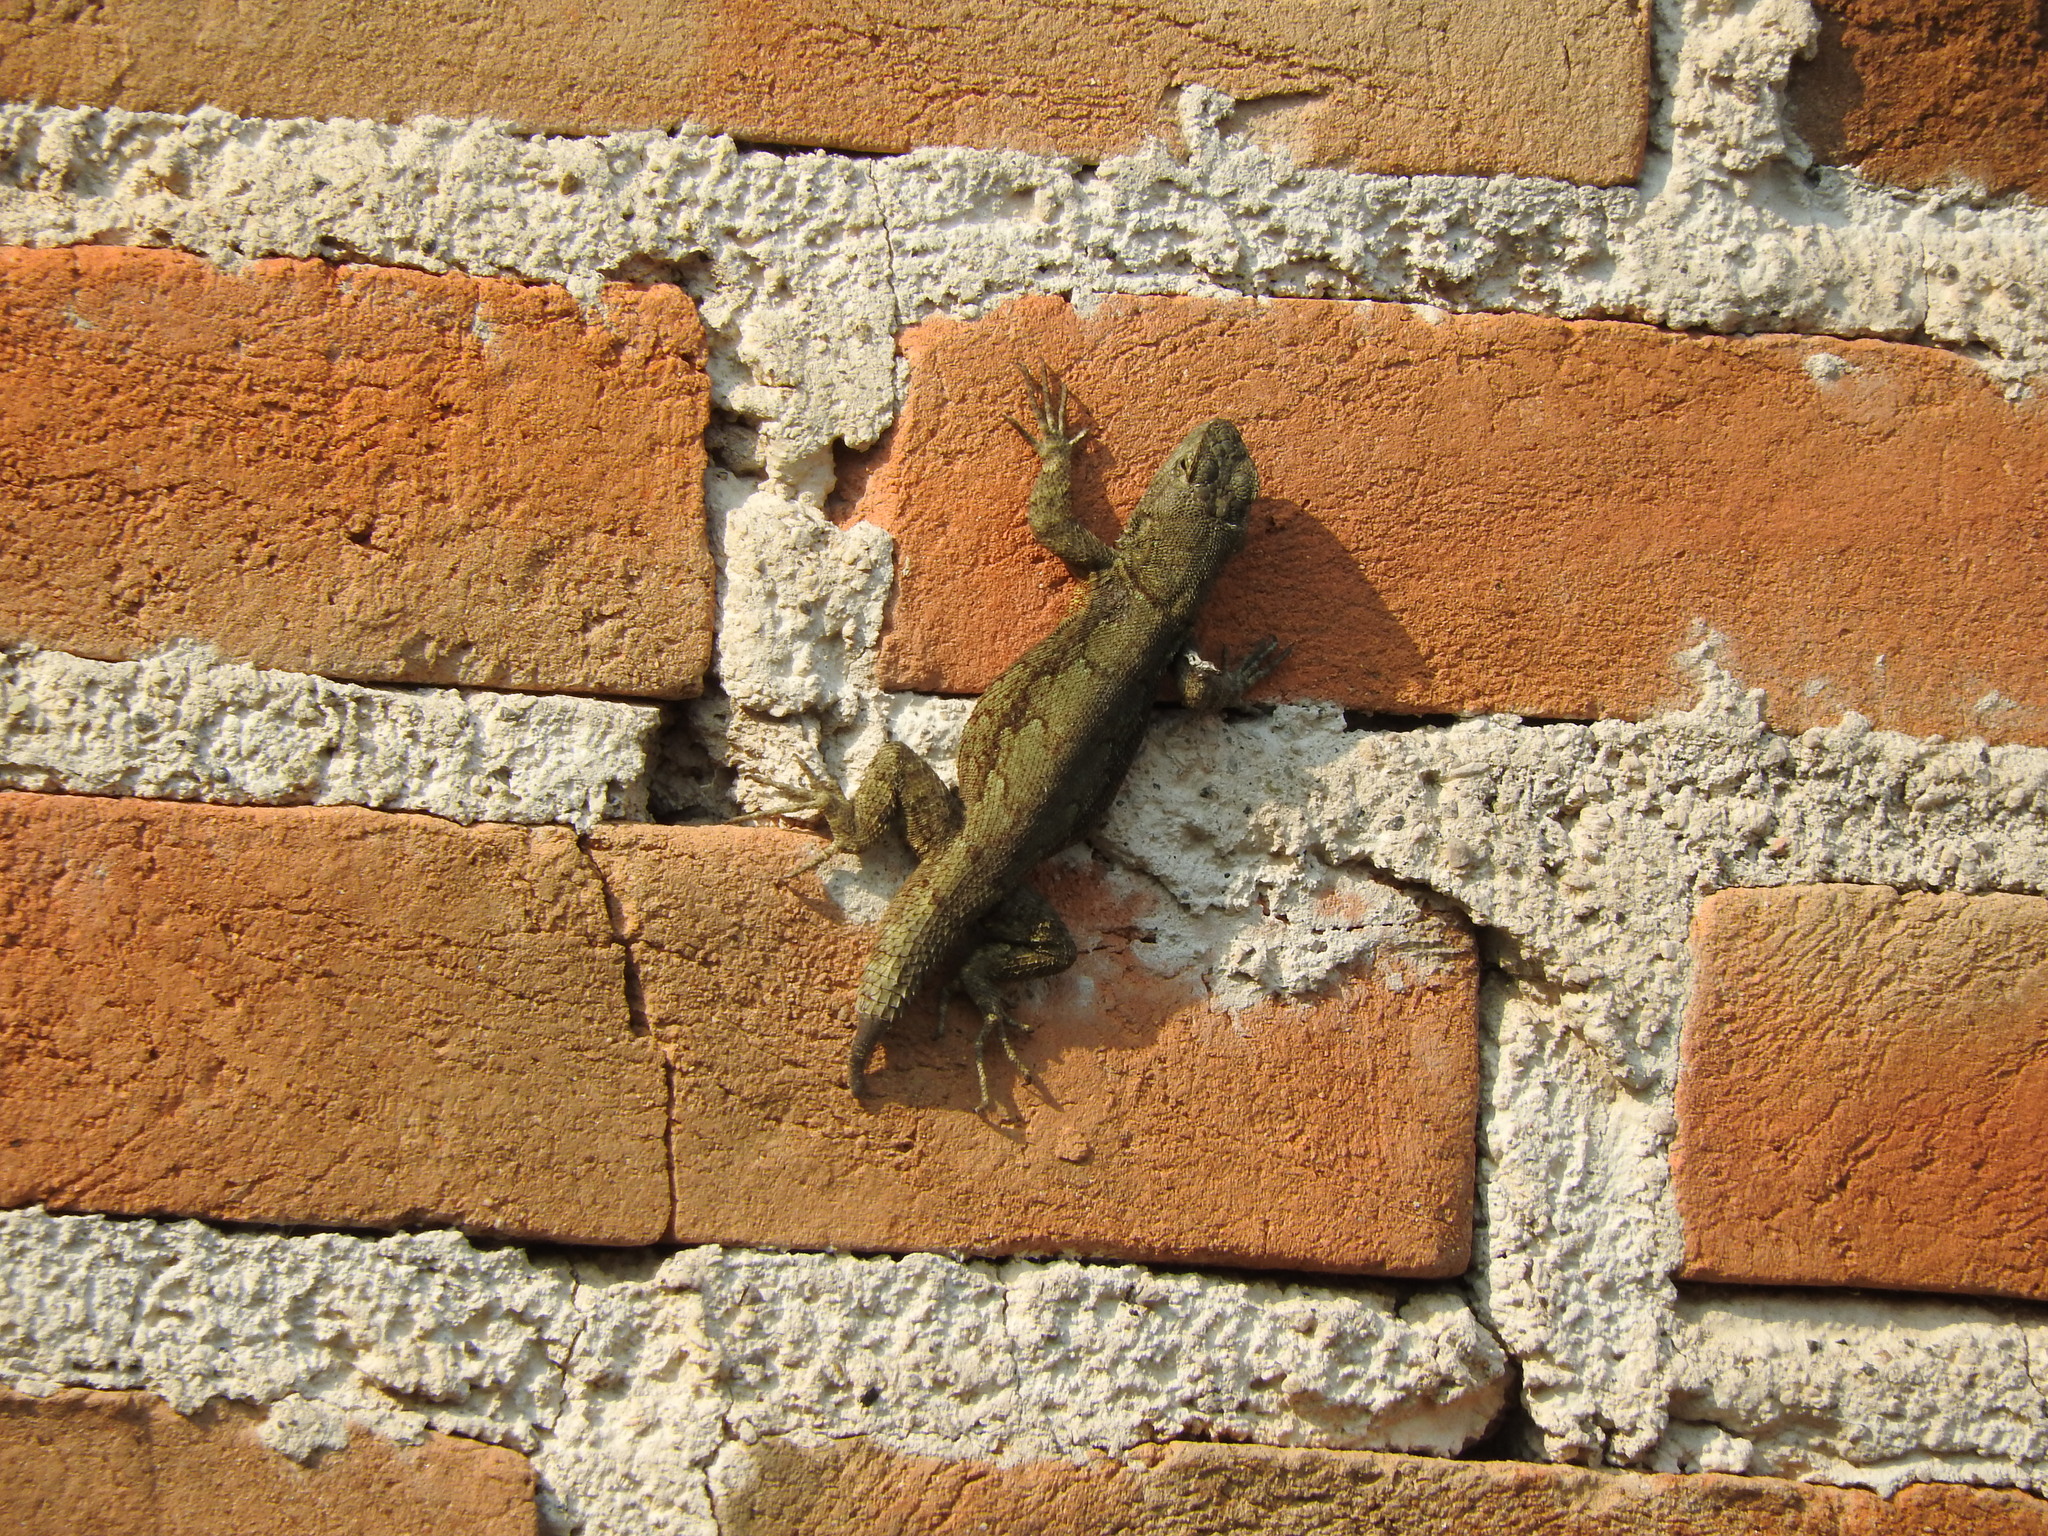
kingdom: Animalia
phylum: Chordata
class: Squamata
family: Phrynosomatidae
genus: Sceloporus
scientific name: Sceloporus grammicus
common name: Mesquite lizard
